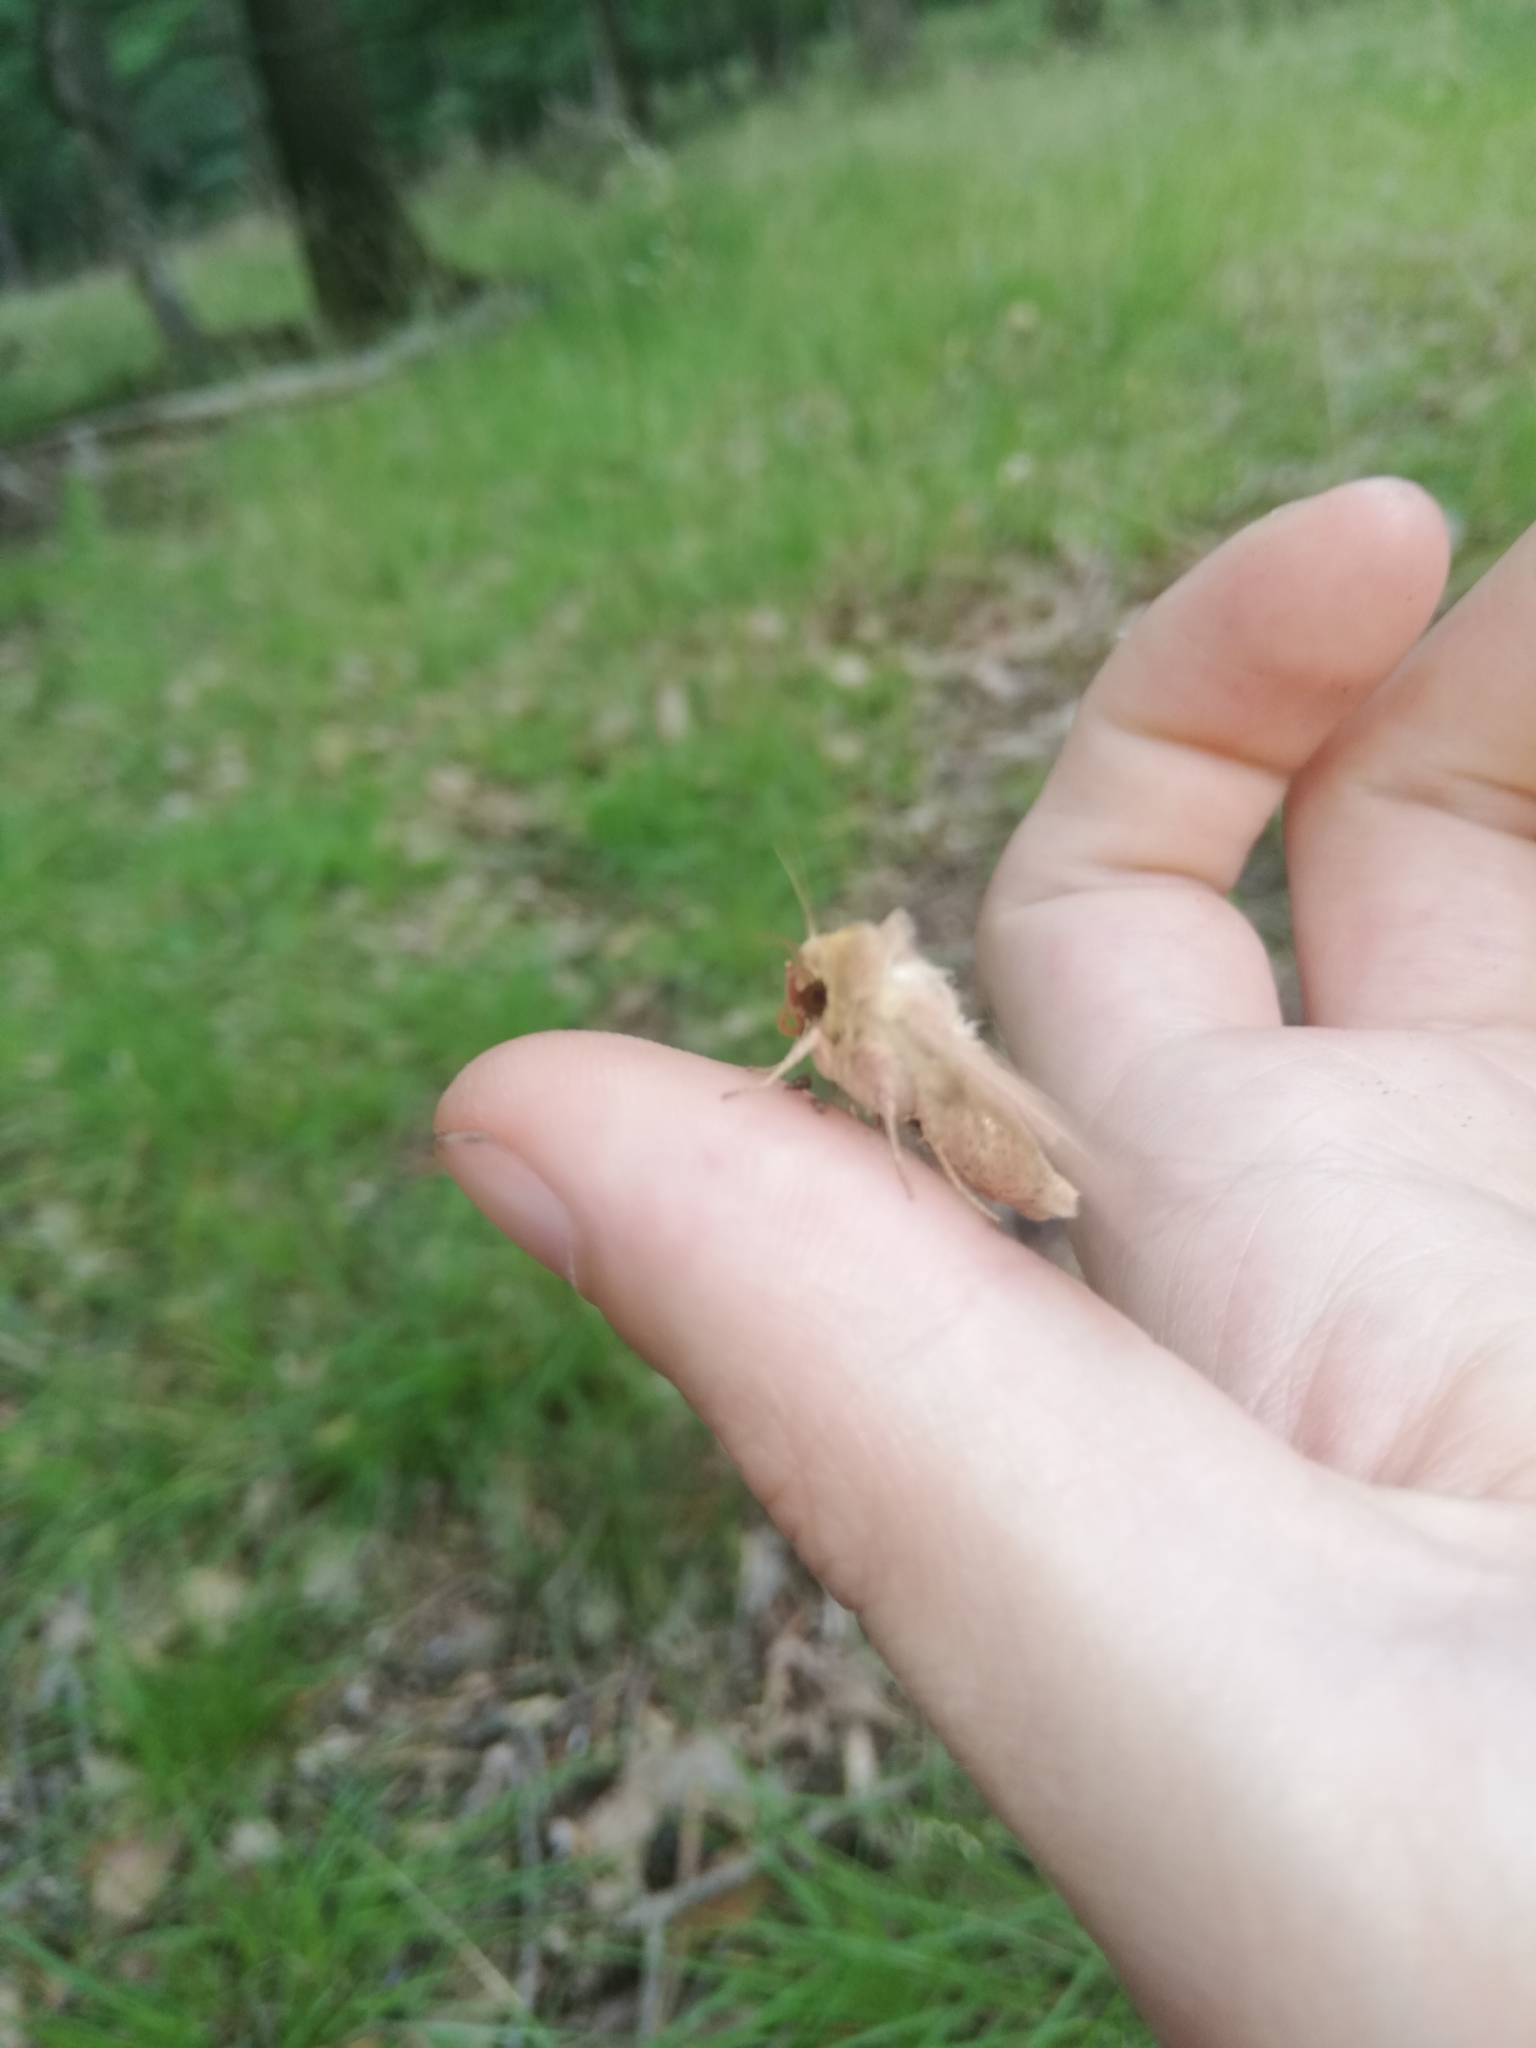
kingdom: Animalia
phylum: Arthropoda
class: Insecta
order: Lepidoptera
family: Noctuidae
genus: Mythimna
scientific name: Mythimna ferrago
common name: Clay
